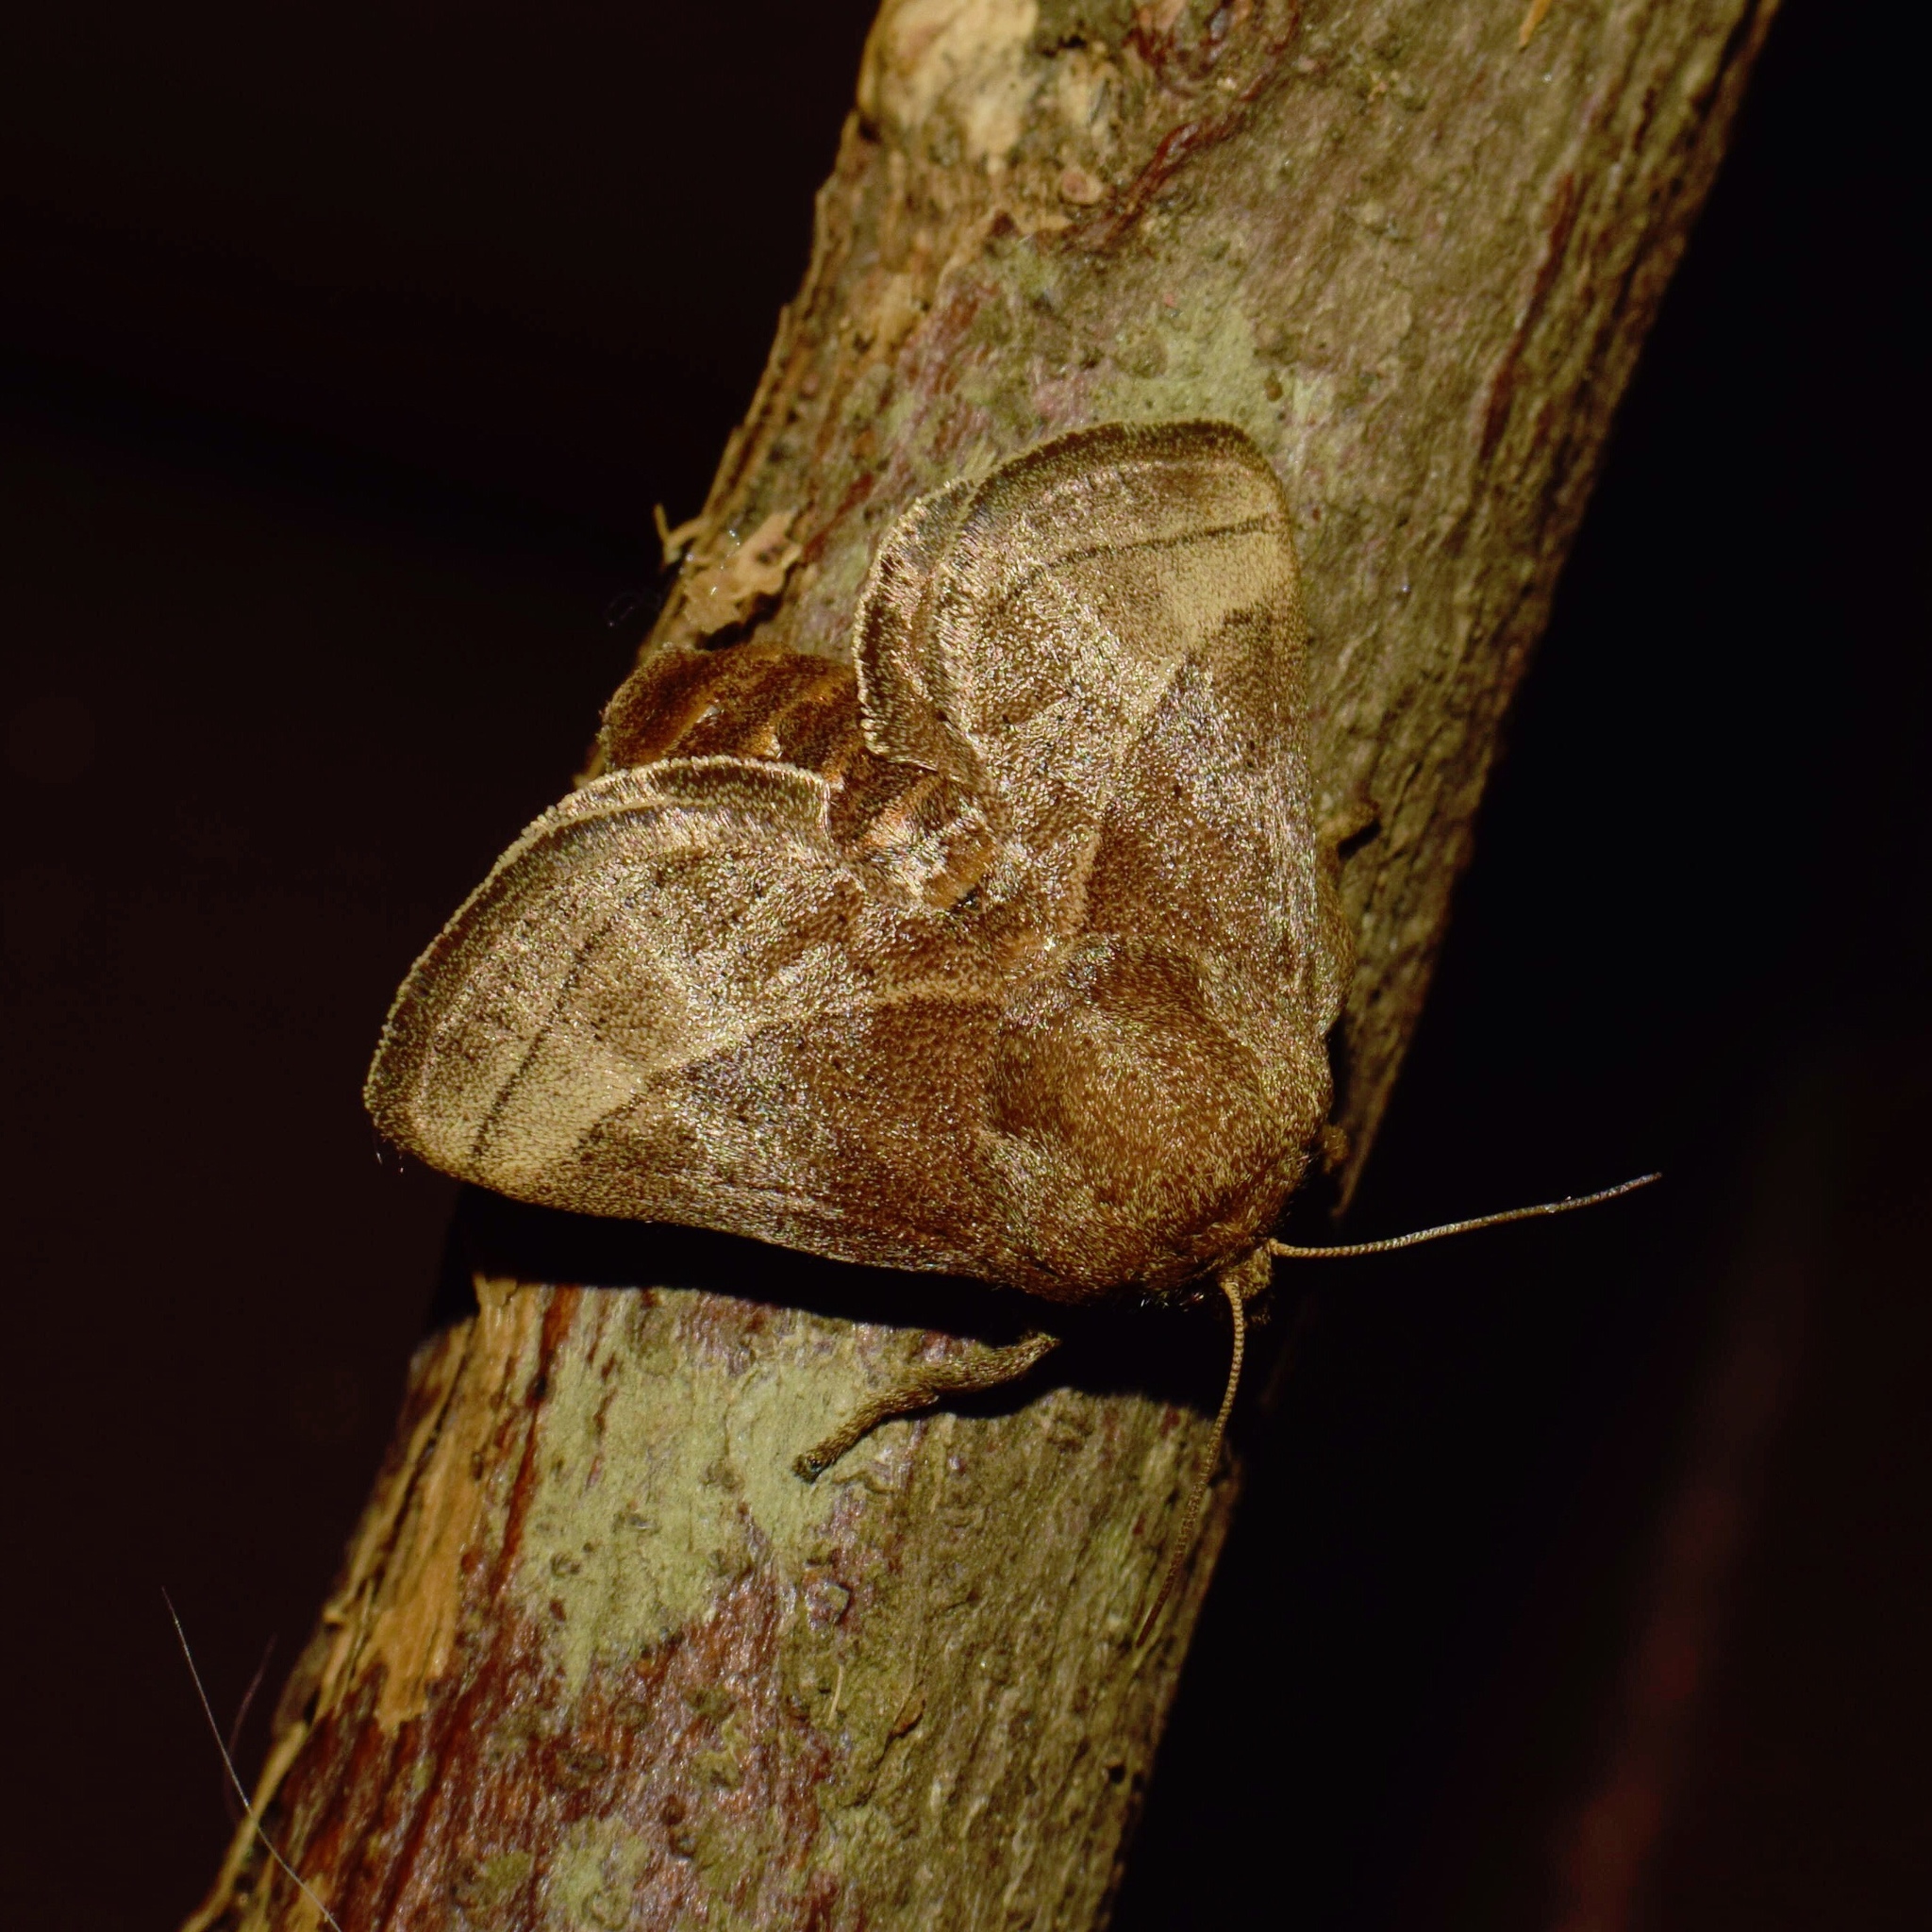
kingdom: Animalia
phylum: Arthropoda
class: Insecta
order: Lepidoptera
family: Limacodidae
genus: Omocenoides
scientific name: Omocenoides isophanes
